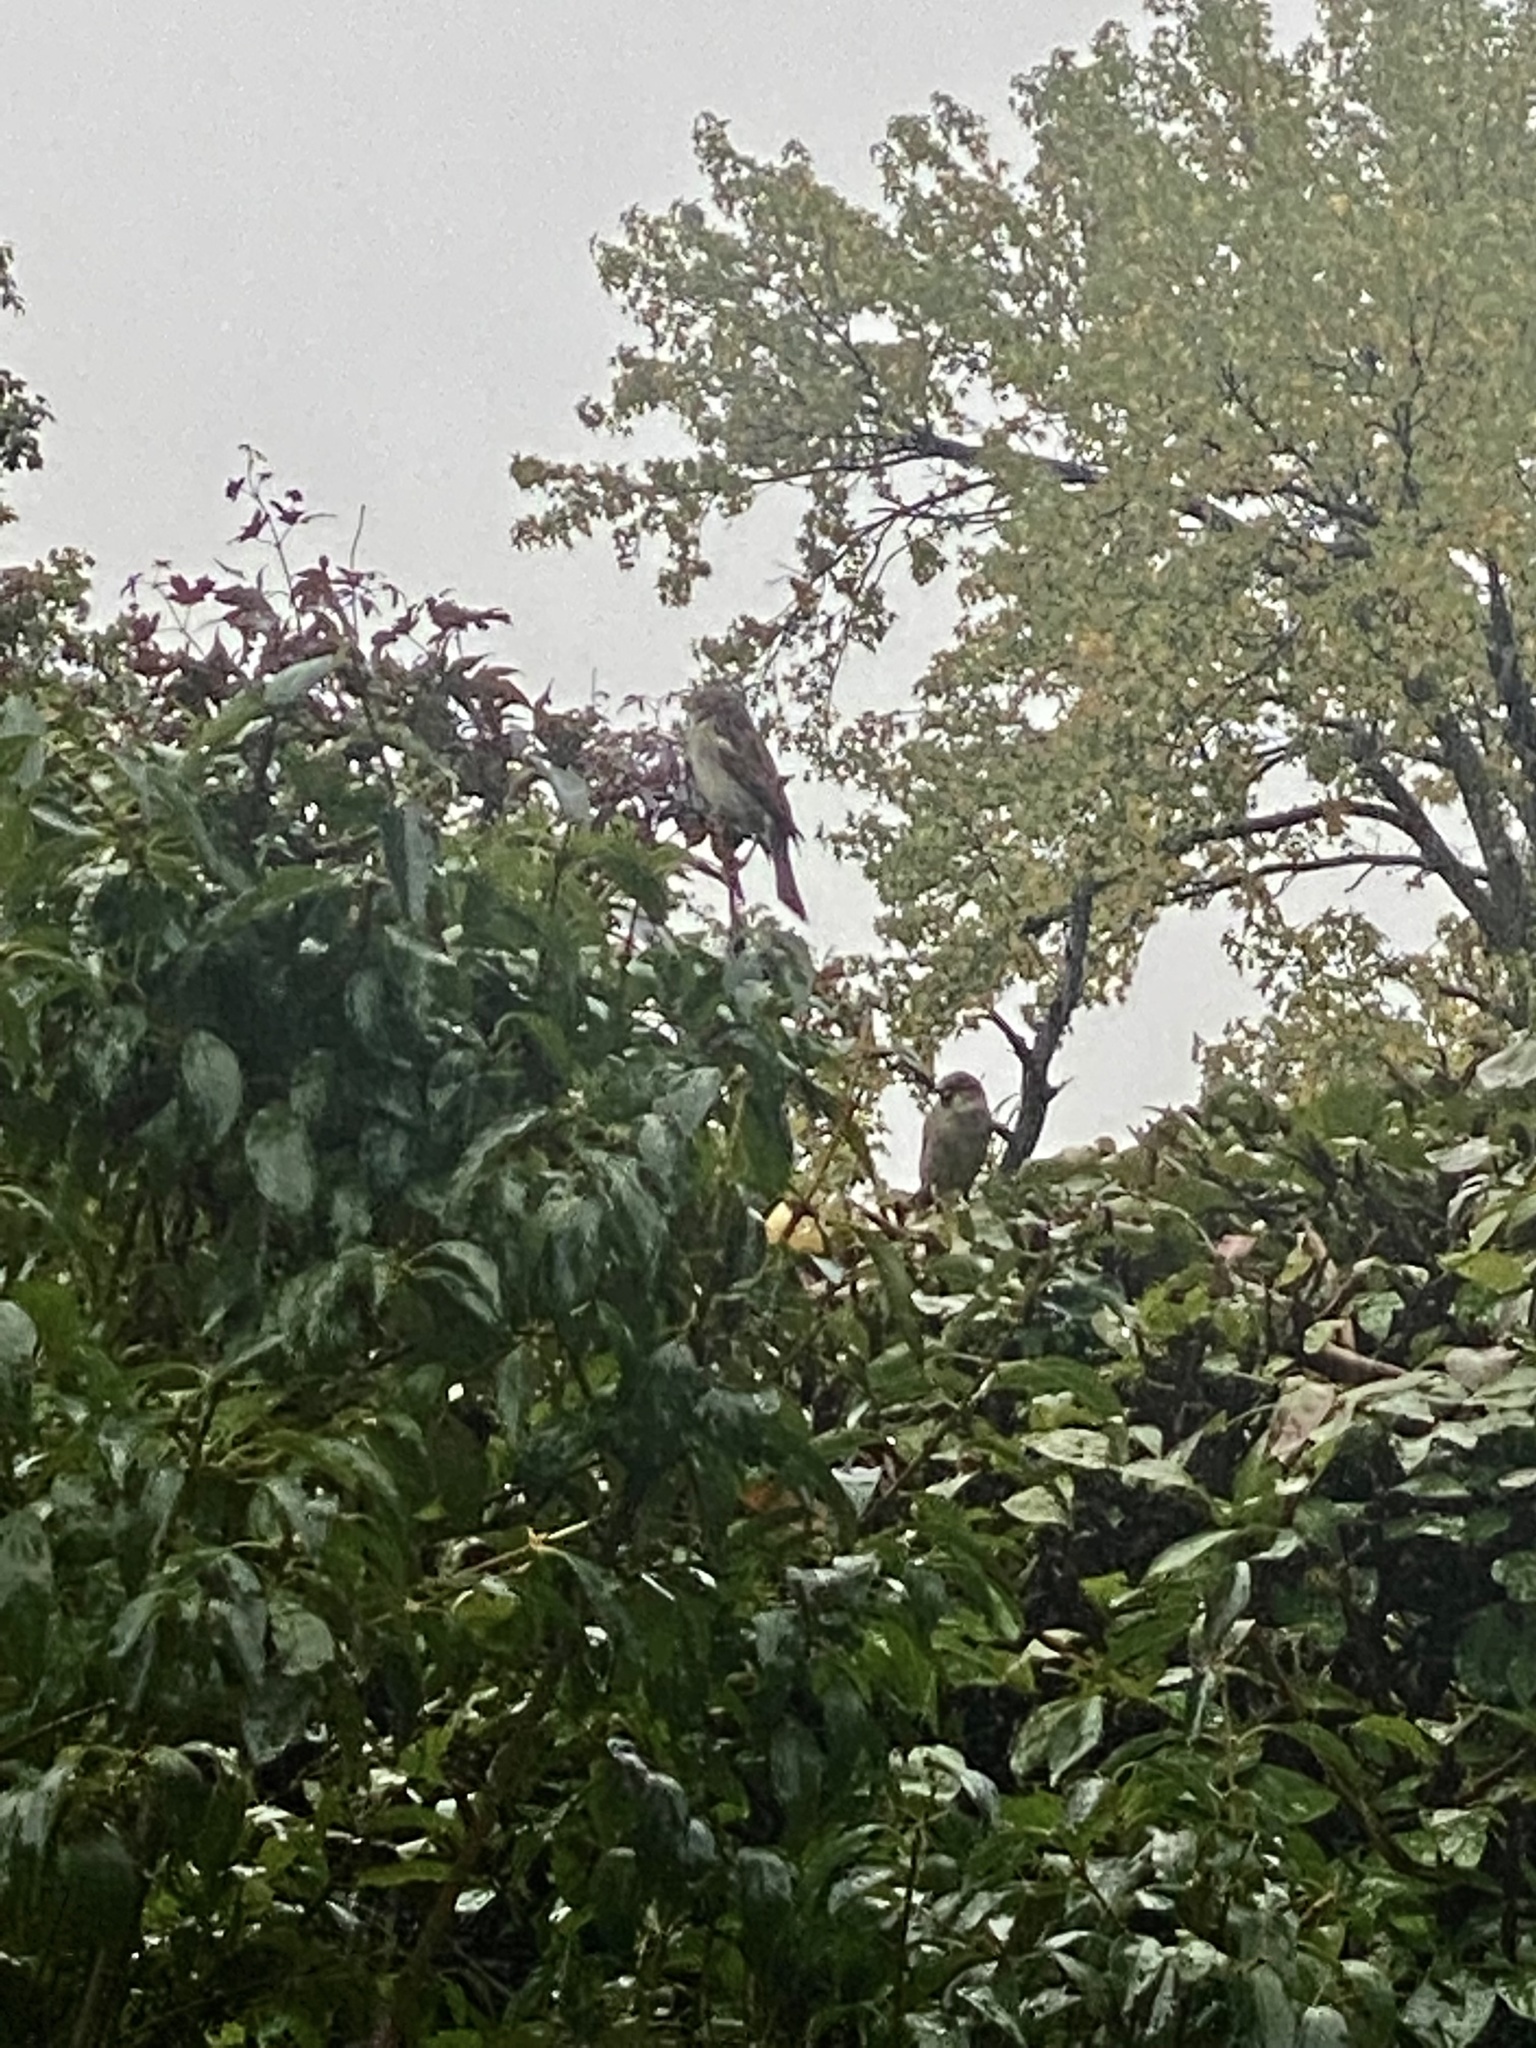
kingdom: Animalia
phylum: Chordata
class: Aves
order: Passeriformes
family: Passeridae
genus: Passer
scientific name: Passer domesticus
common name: House sparrow
